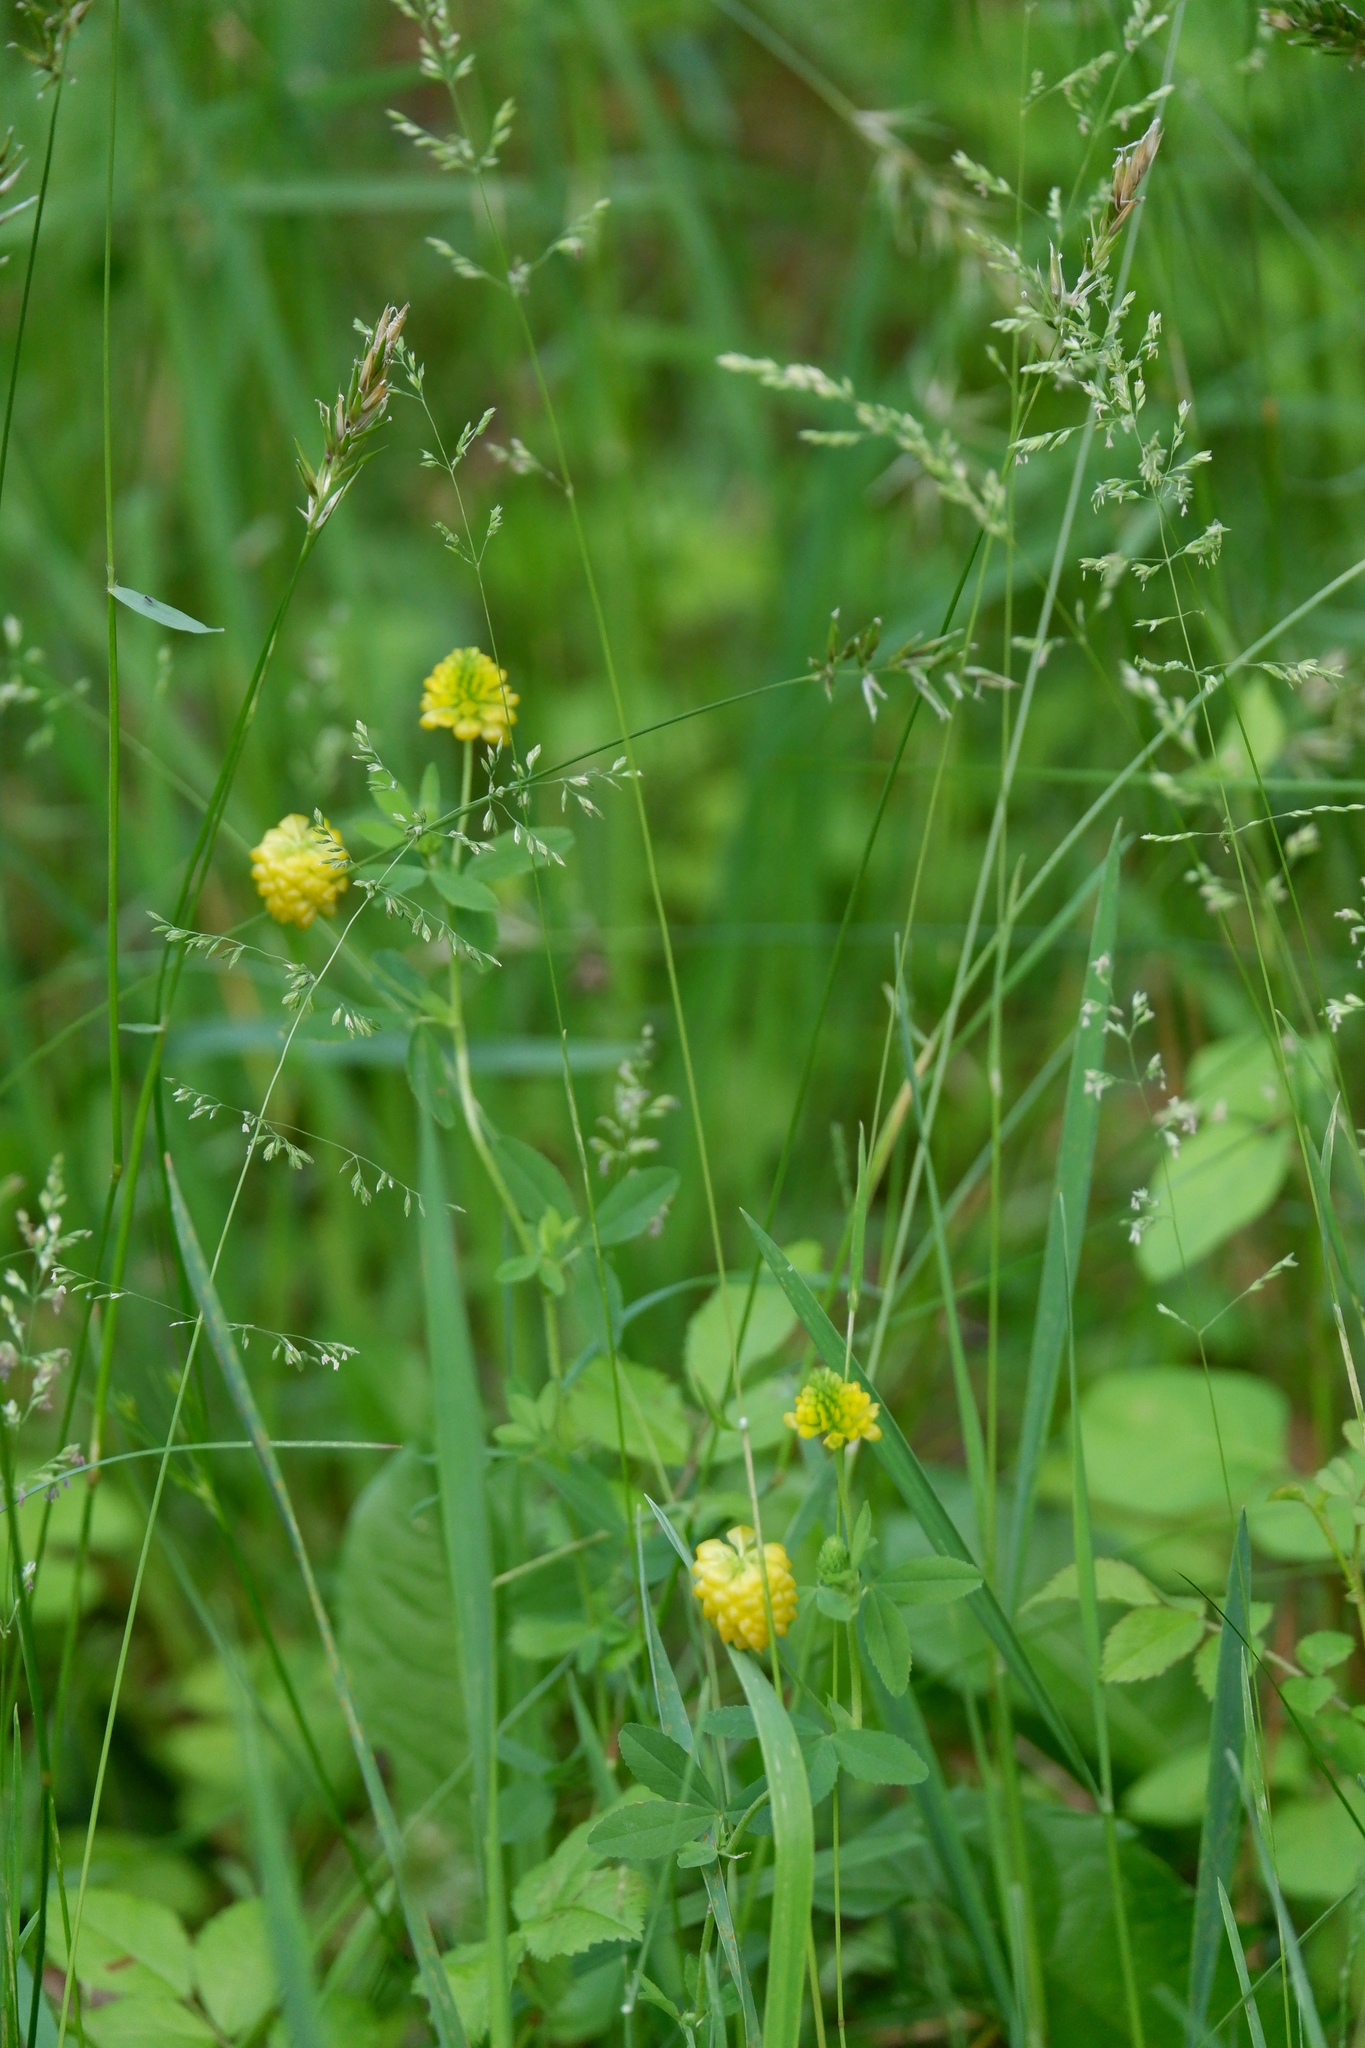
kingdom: Plantae
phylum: Tracheophyta
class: Magnoliopsida
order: Fabales
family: Fabaceae
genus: Trifolium
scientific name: Trifolium aureum
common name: Golden clover
